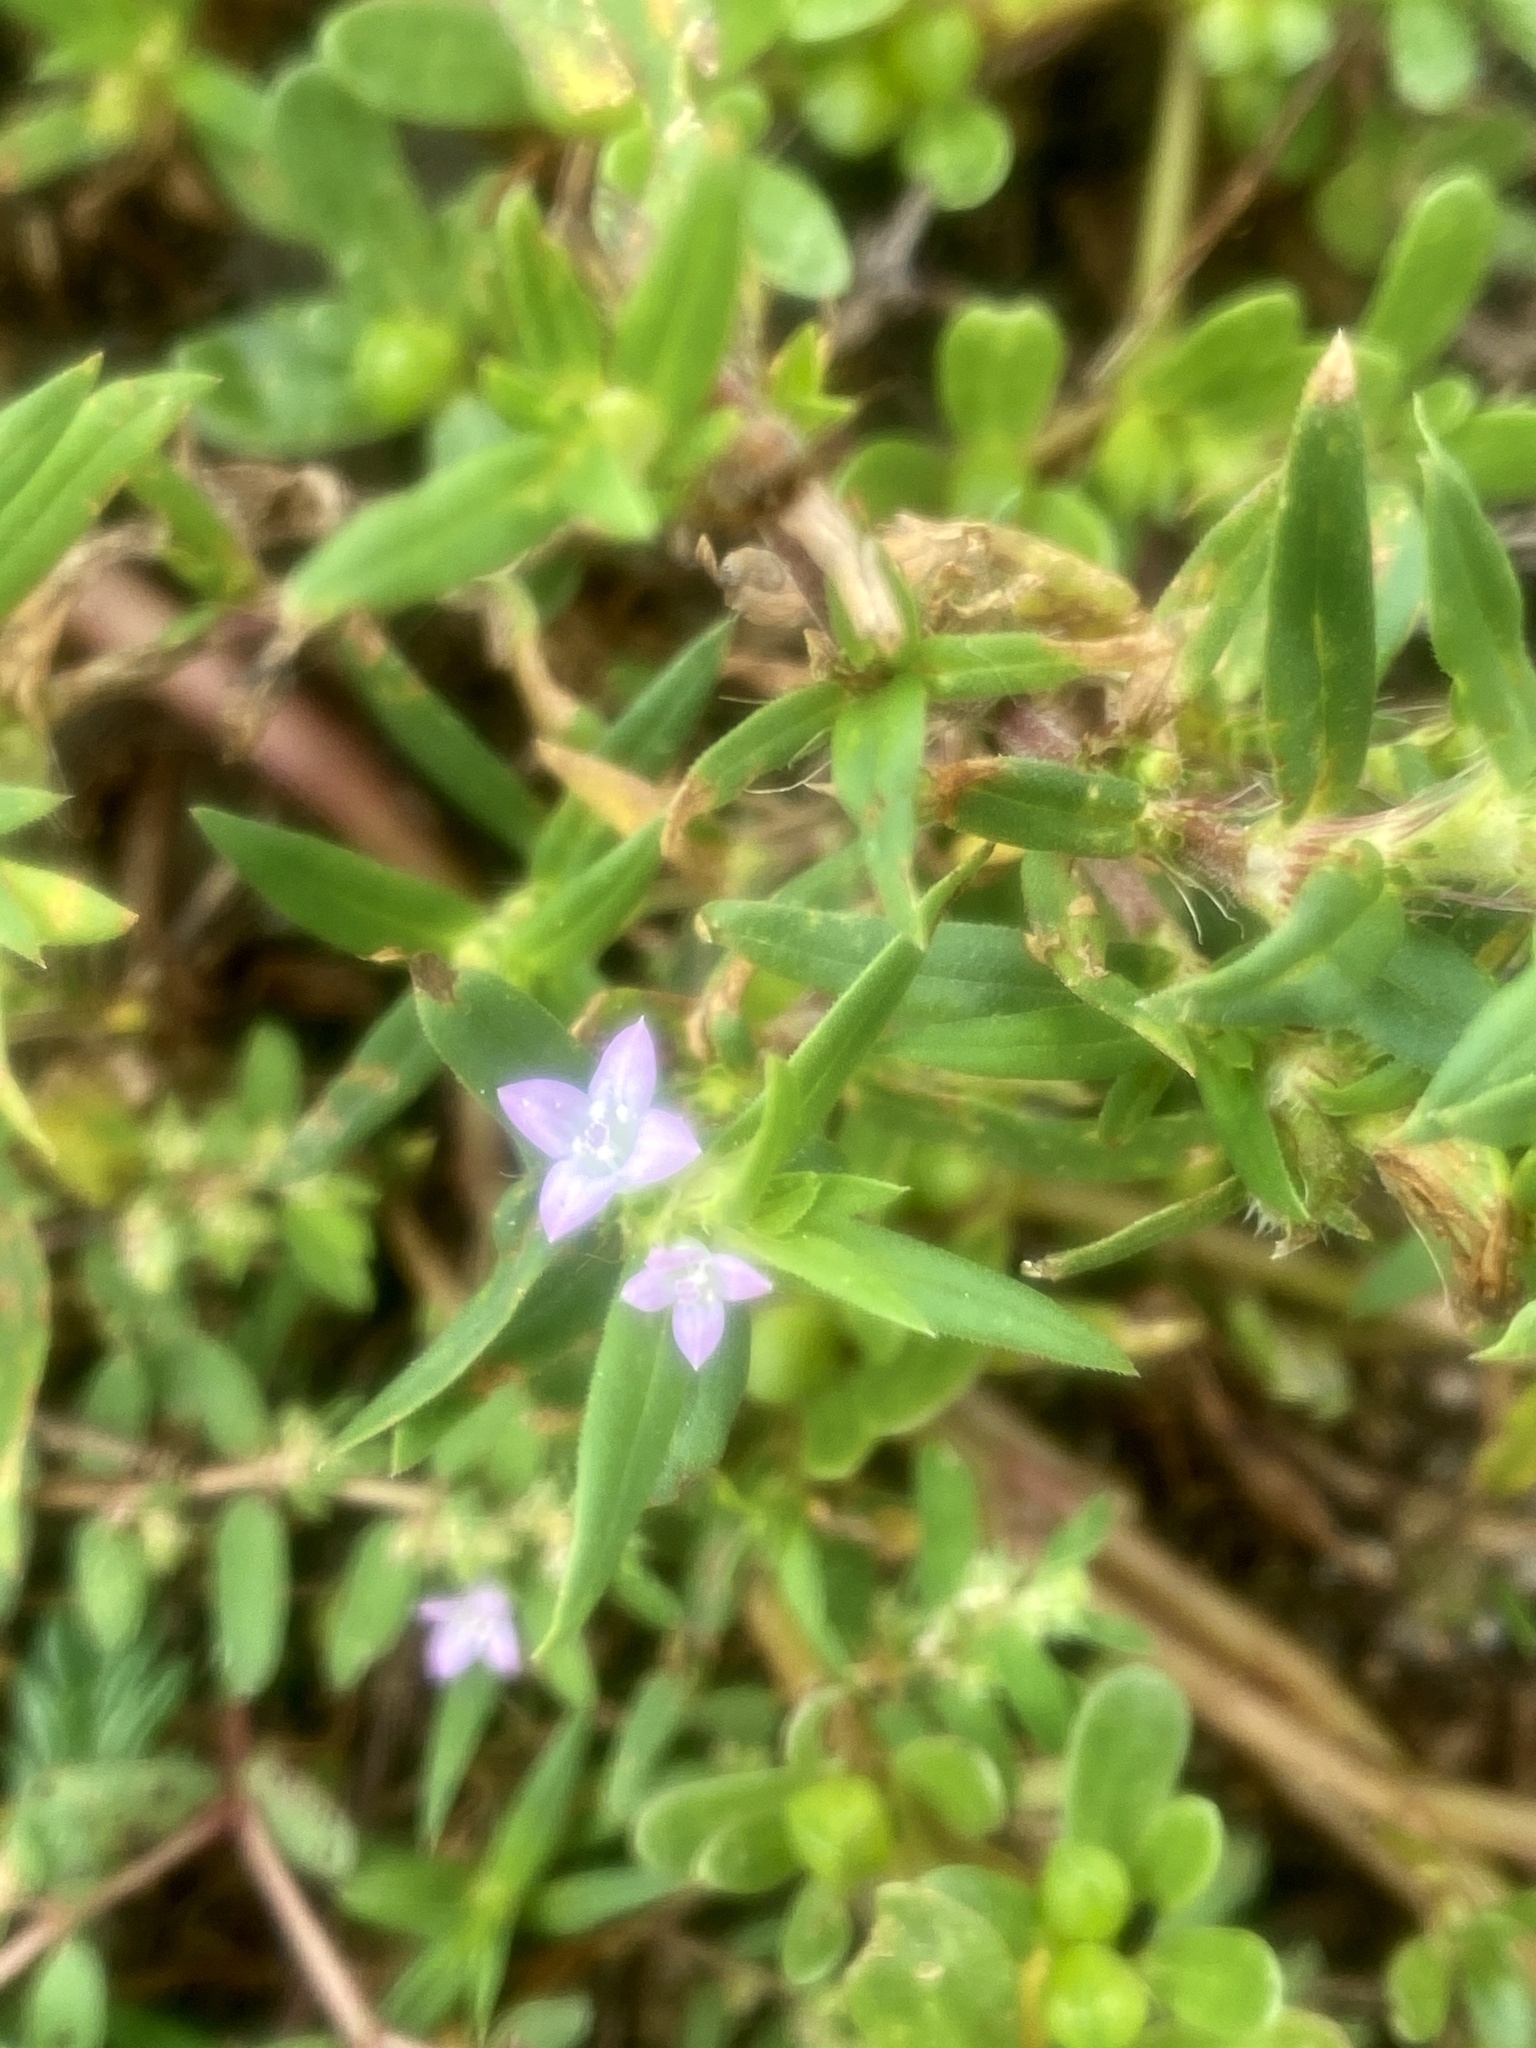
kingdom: Plantae
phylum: Tracheophyta
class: Magnoliopsida
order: Gentianales
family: Rubiaceae
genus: Hexasepalum
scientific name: Hexasepalum teres
